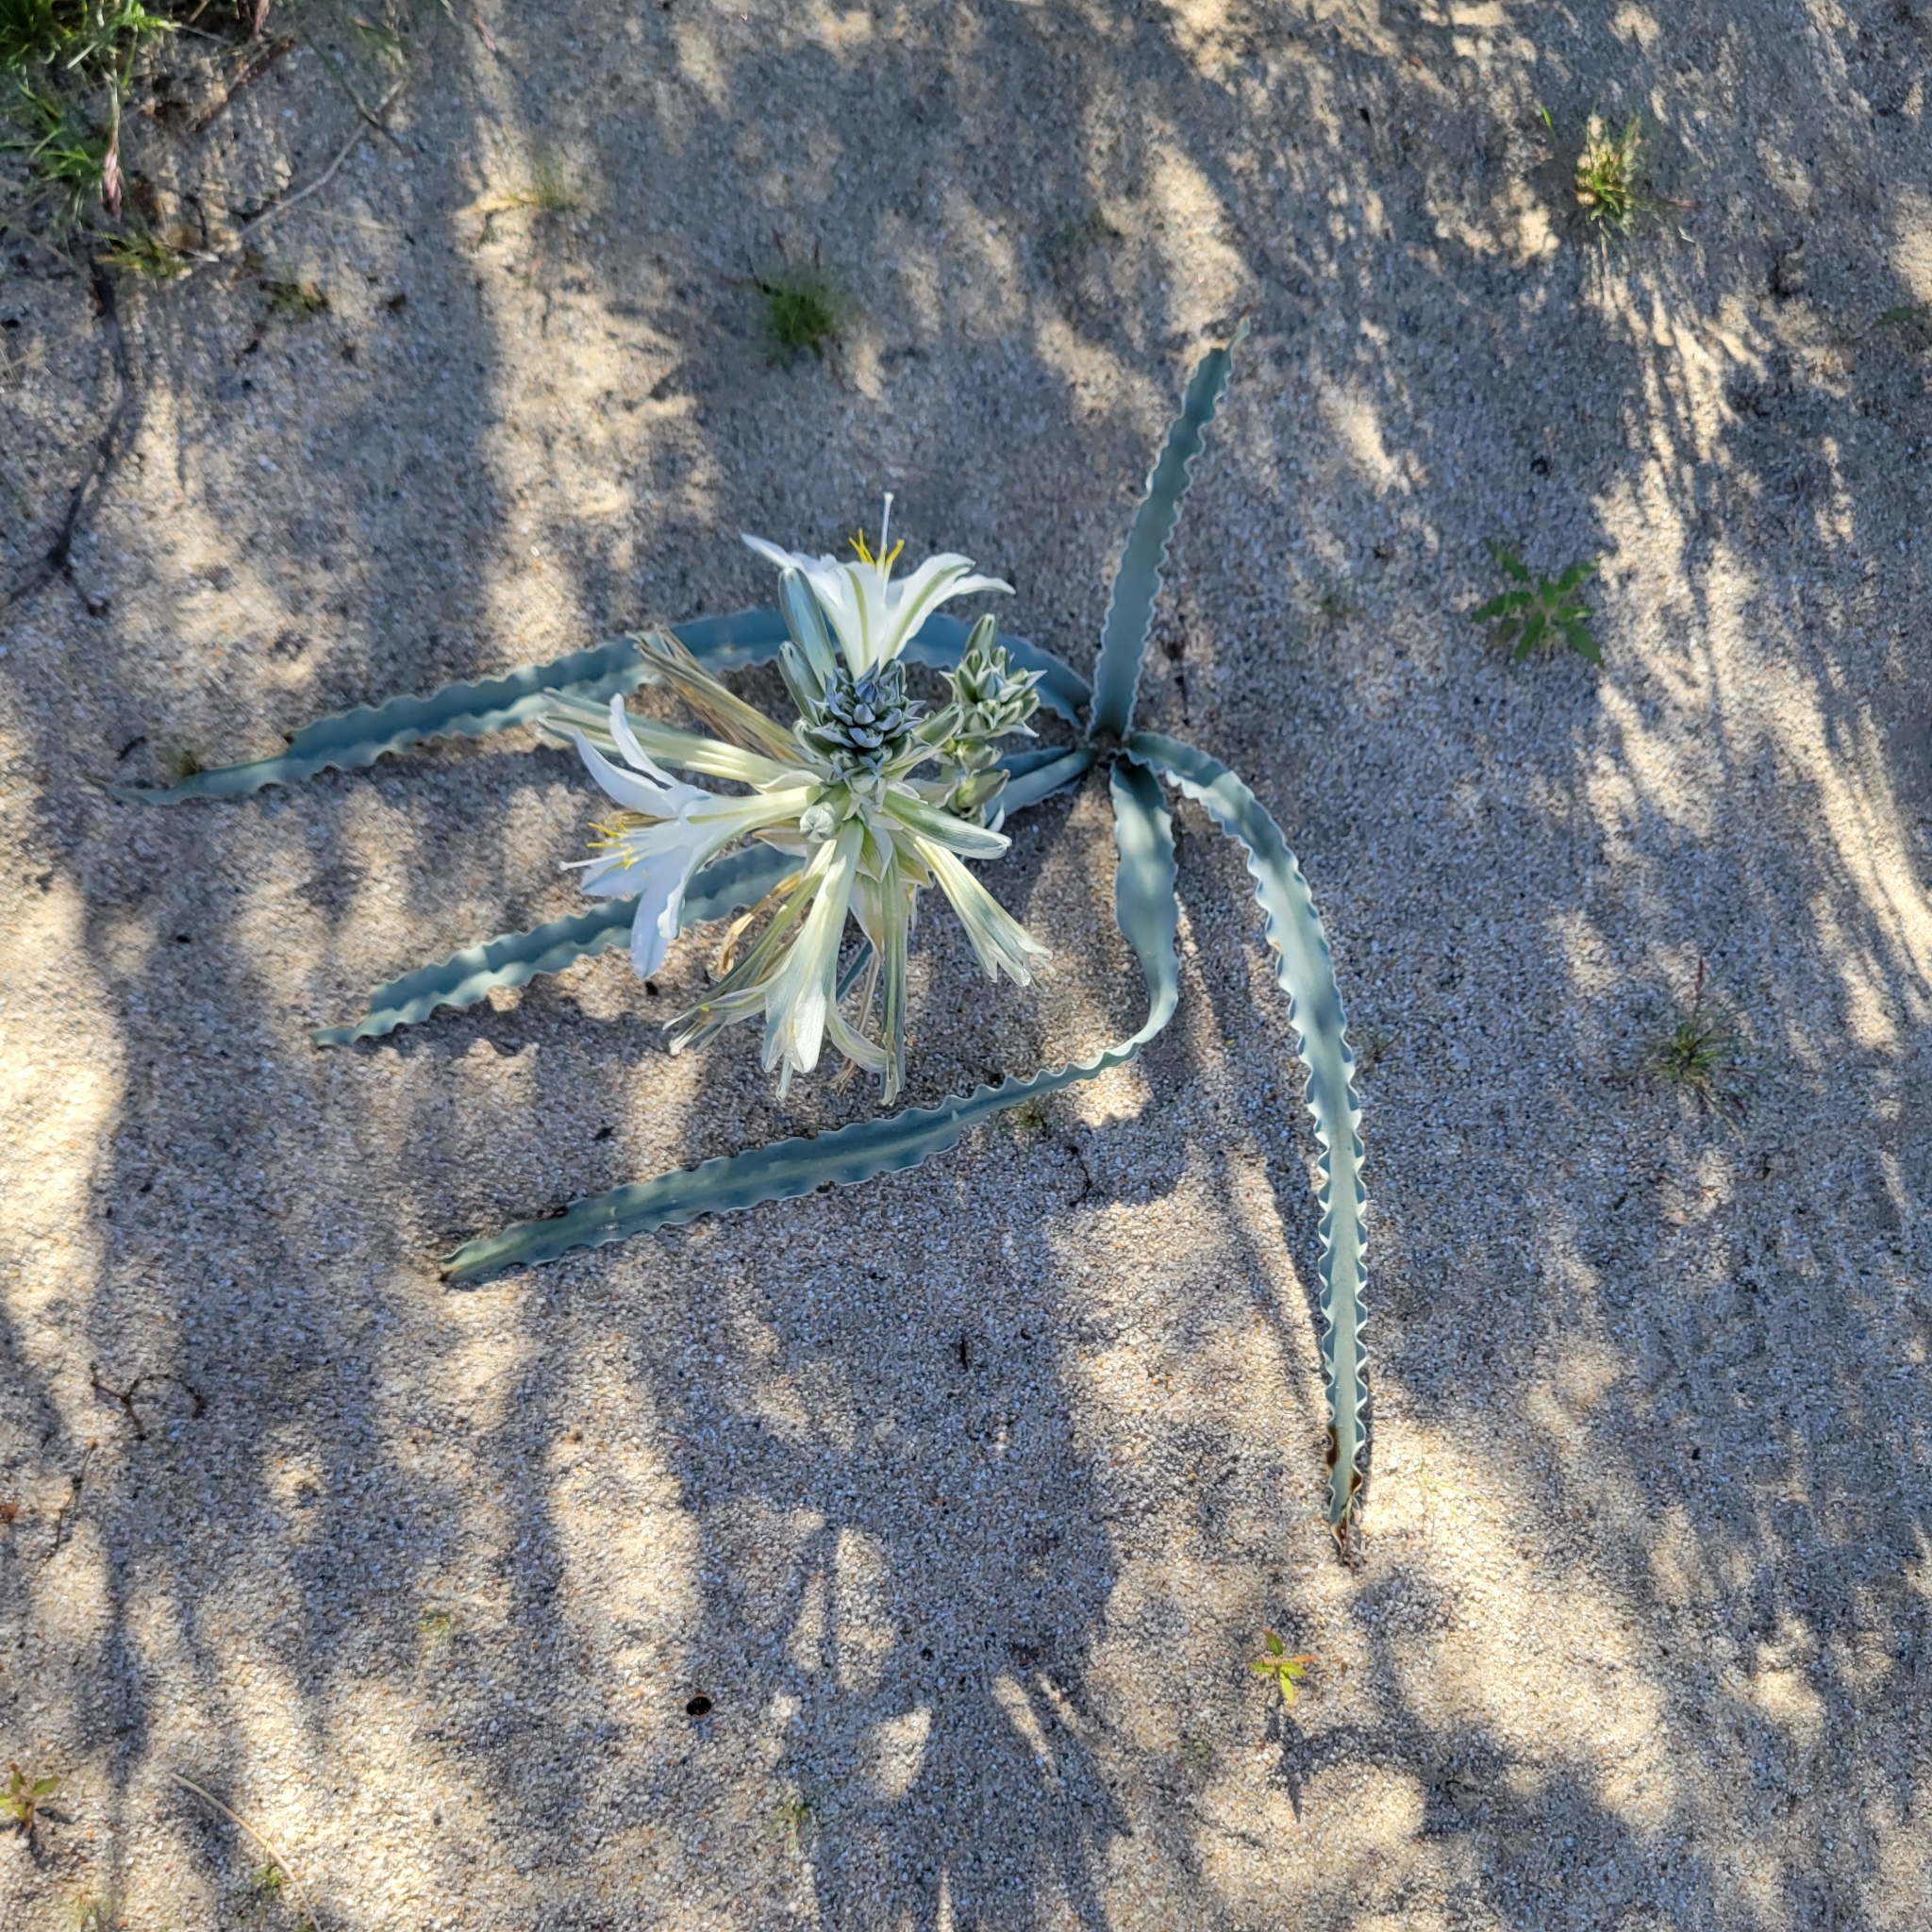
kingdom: Plantae
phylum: Tracheophyta
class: Liliopsida
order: Asparagales
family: Asparagaceae
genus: Hesperocallis
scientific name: Hesperocallis undulata
